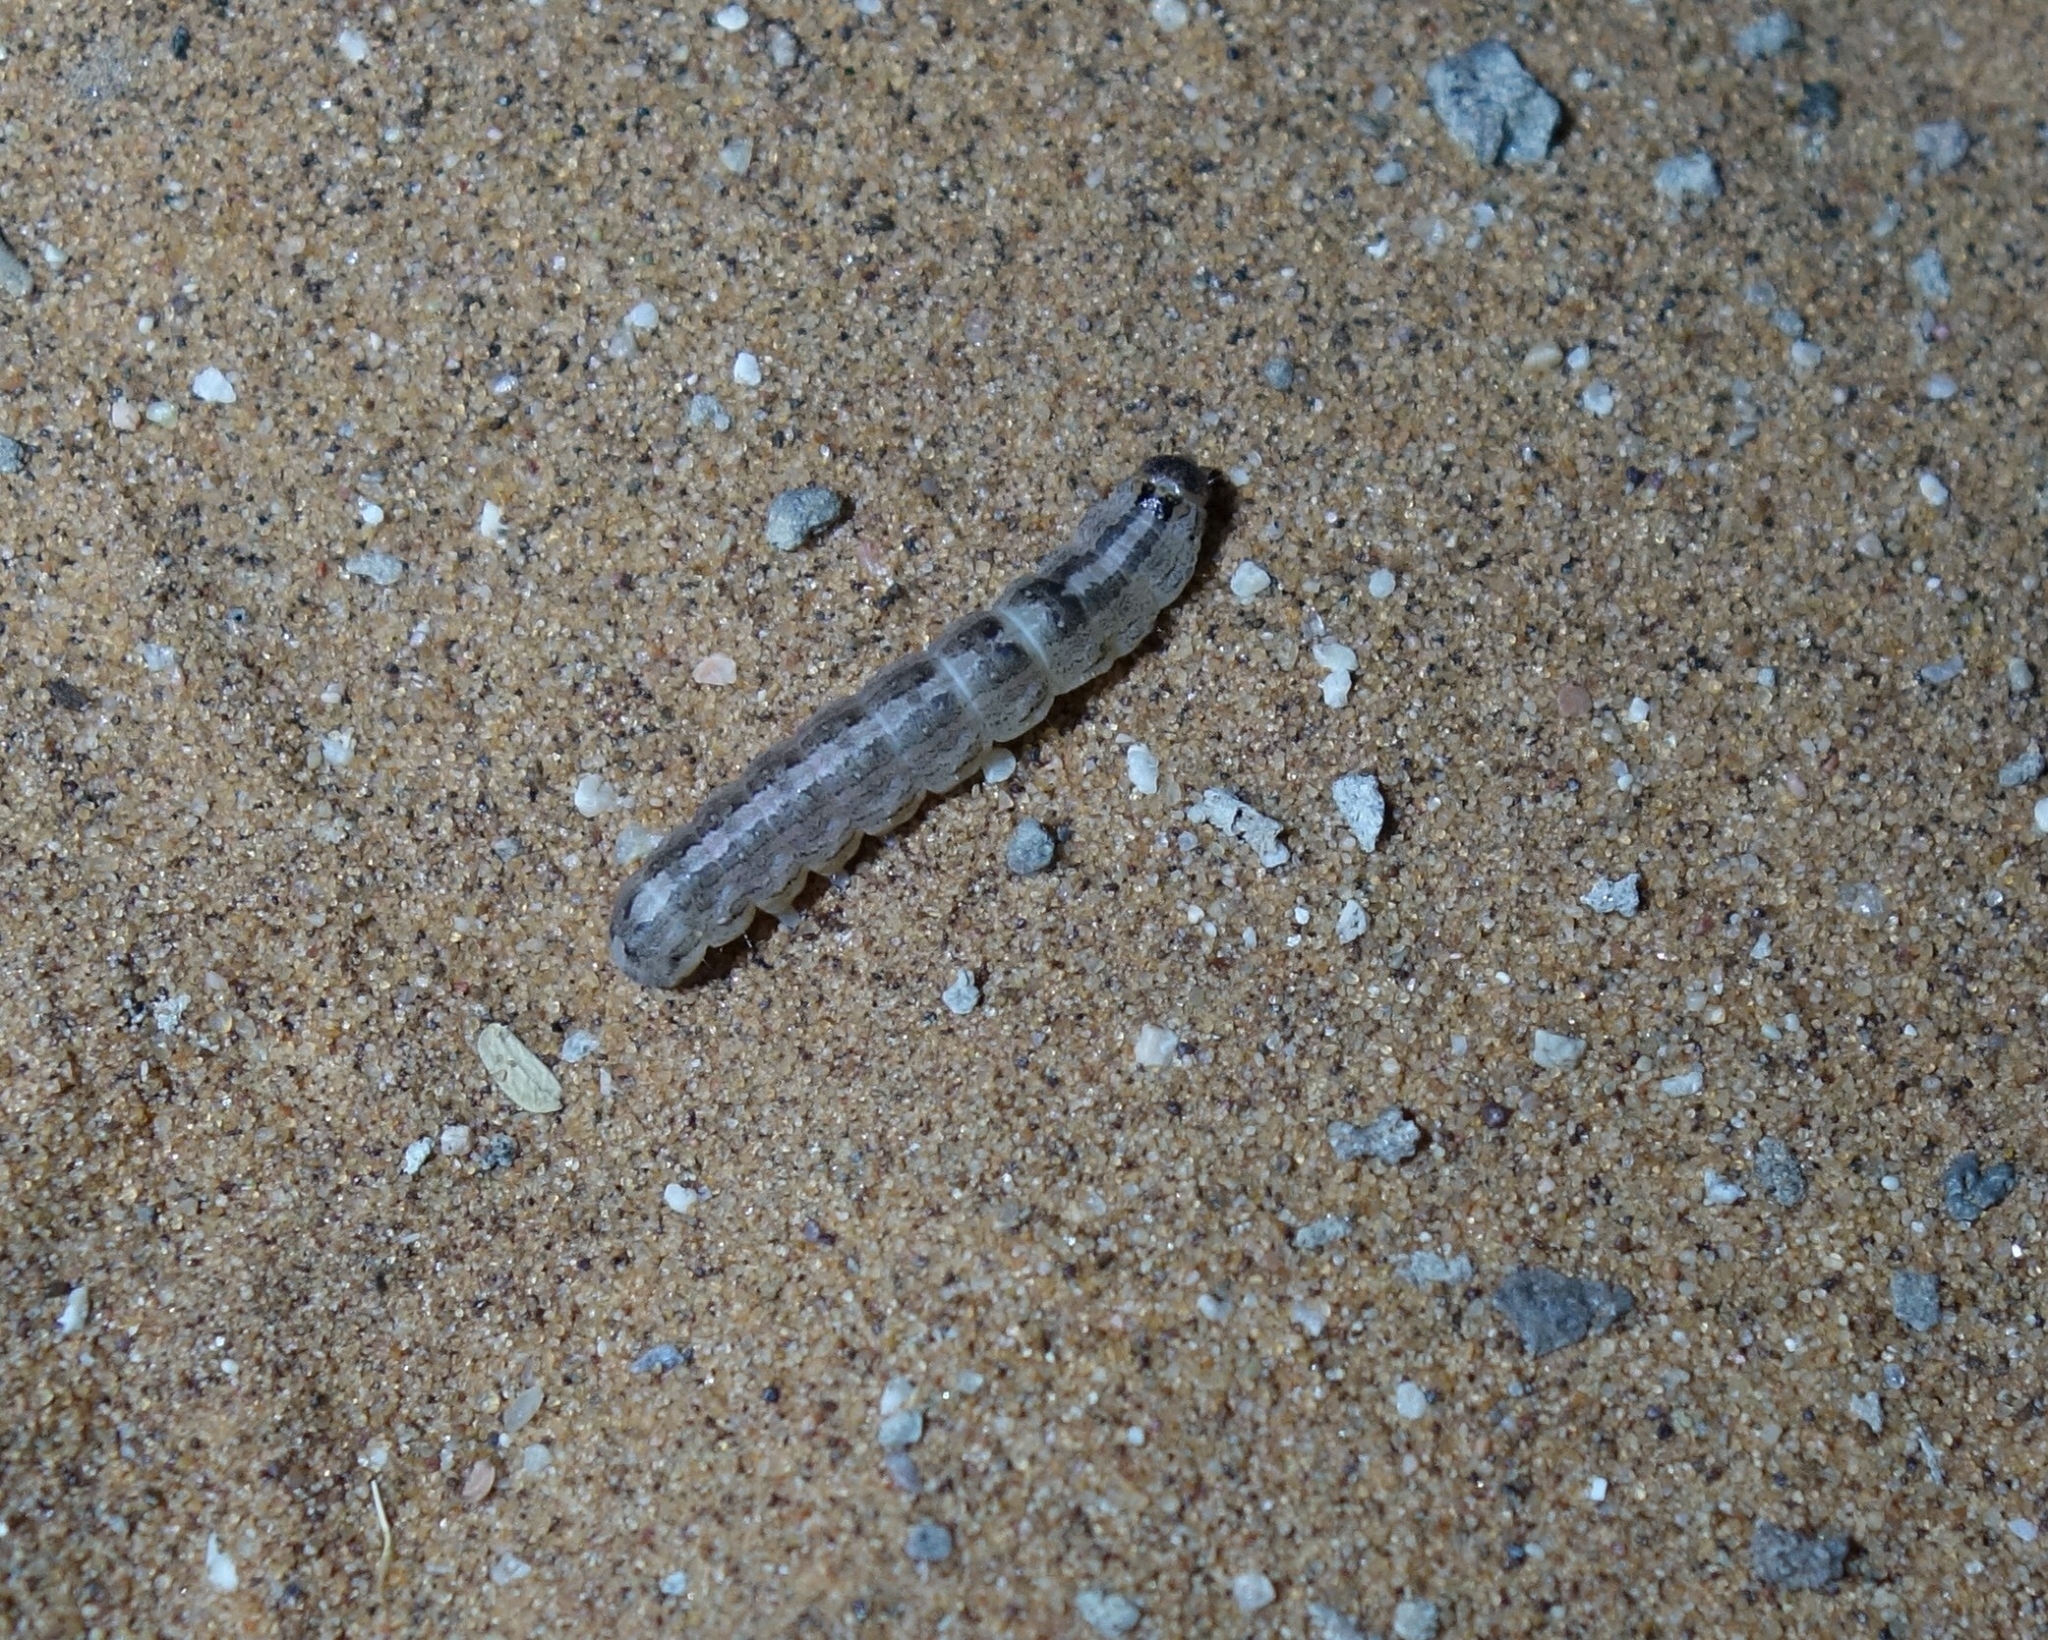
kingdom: Animalia
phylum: Arthropoda
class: Insecta
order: Lepidoptera
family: Erebidae
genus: Pandesma
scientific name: Pandesma robusta
